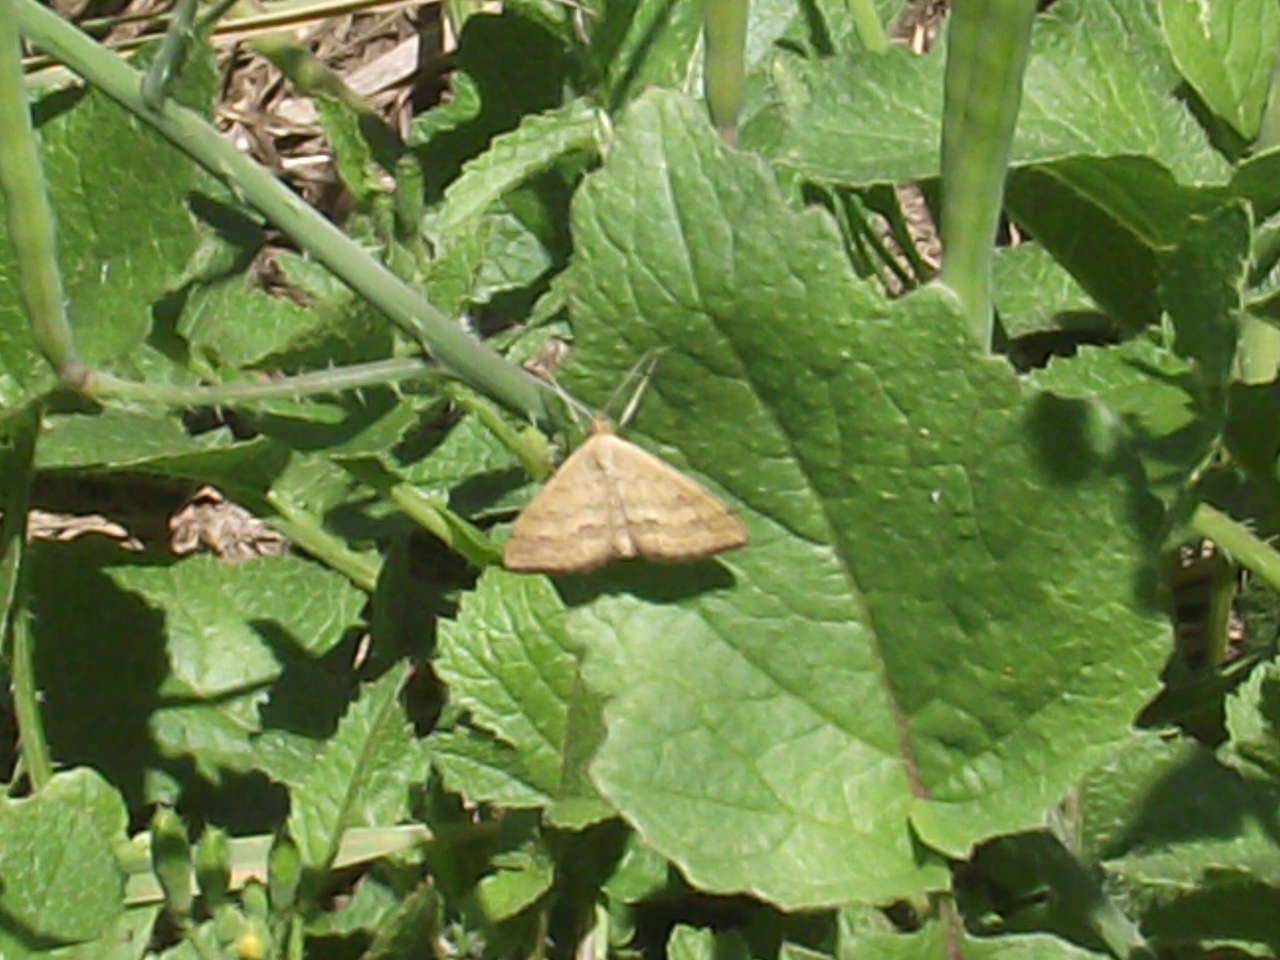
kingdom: Animalia
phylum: Arthropoda
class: Insecta
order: Lepidoptera
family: Geometridae
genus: Scopula
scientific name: Scopula rubraria
